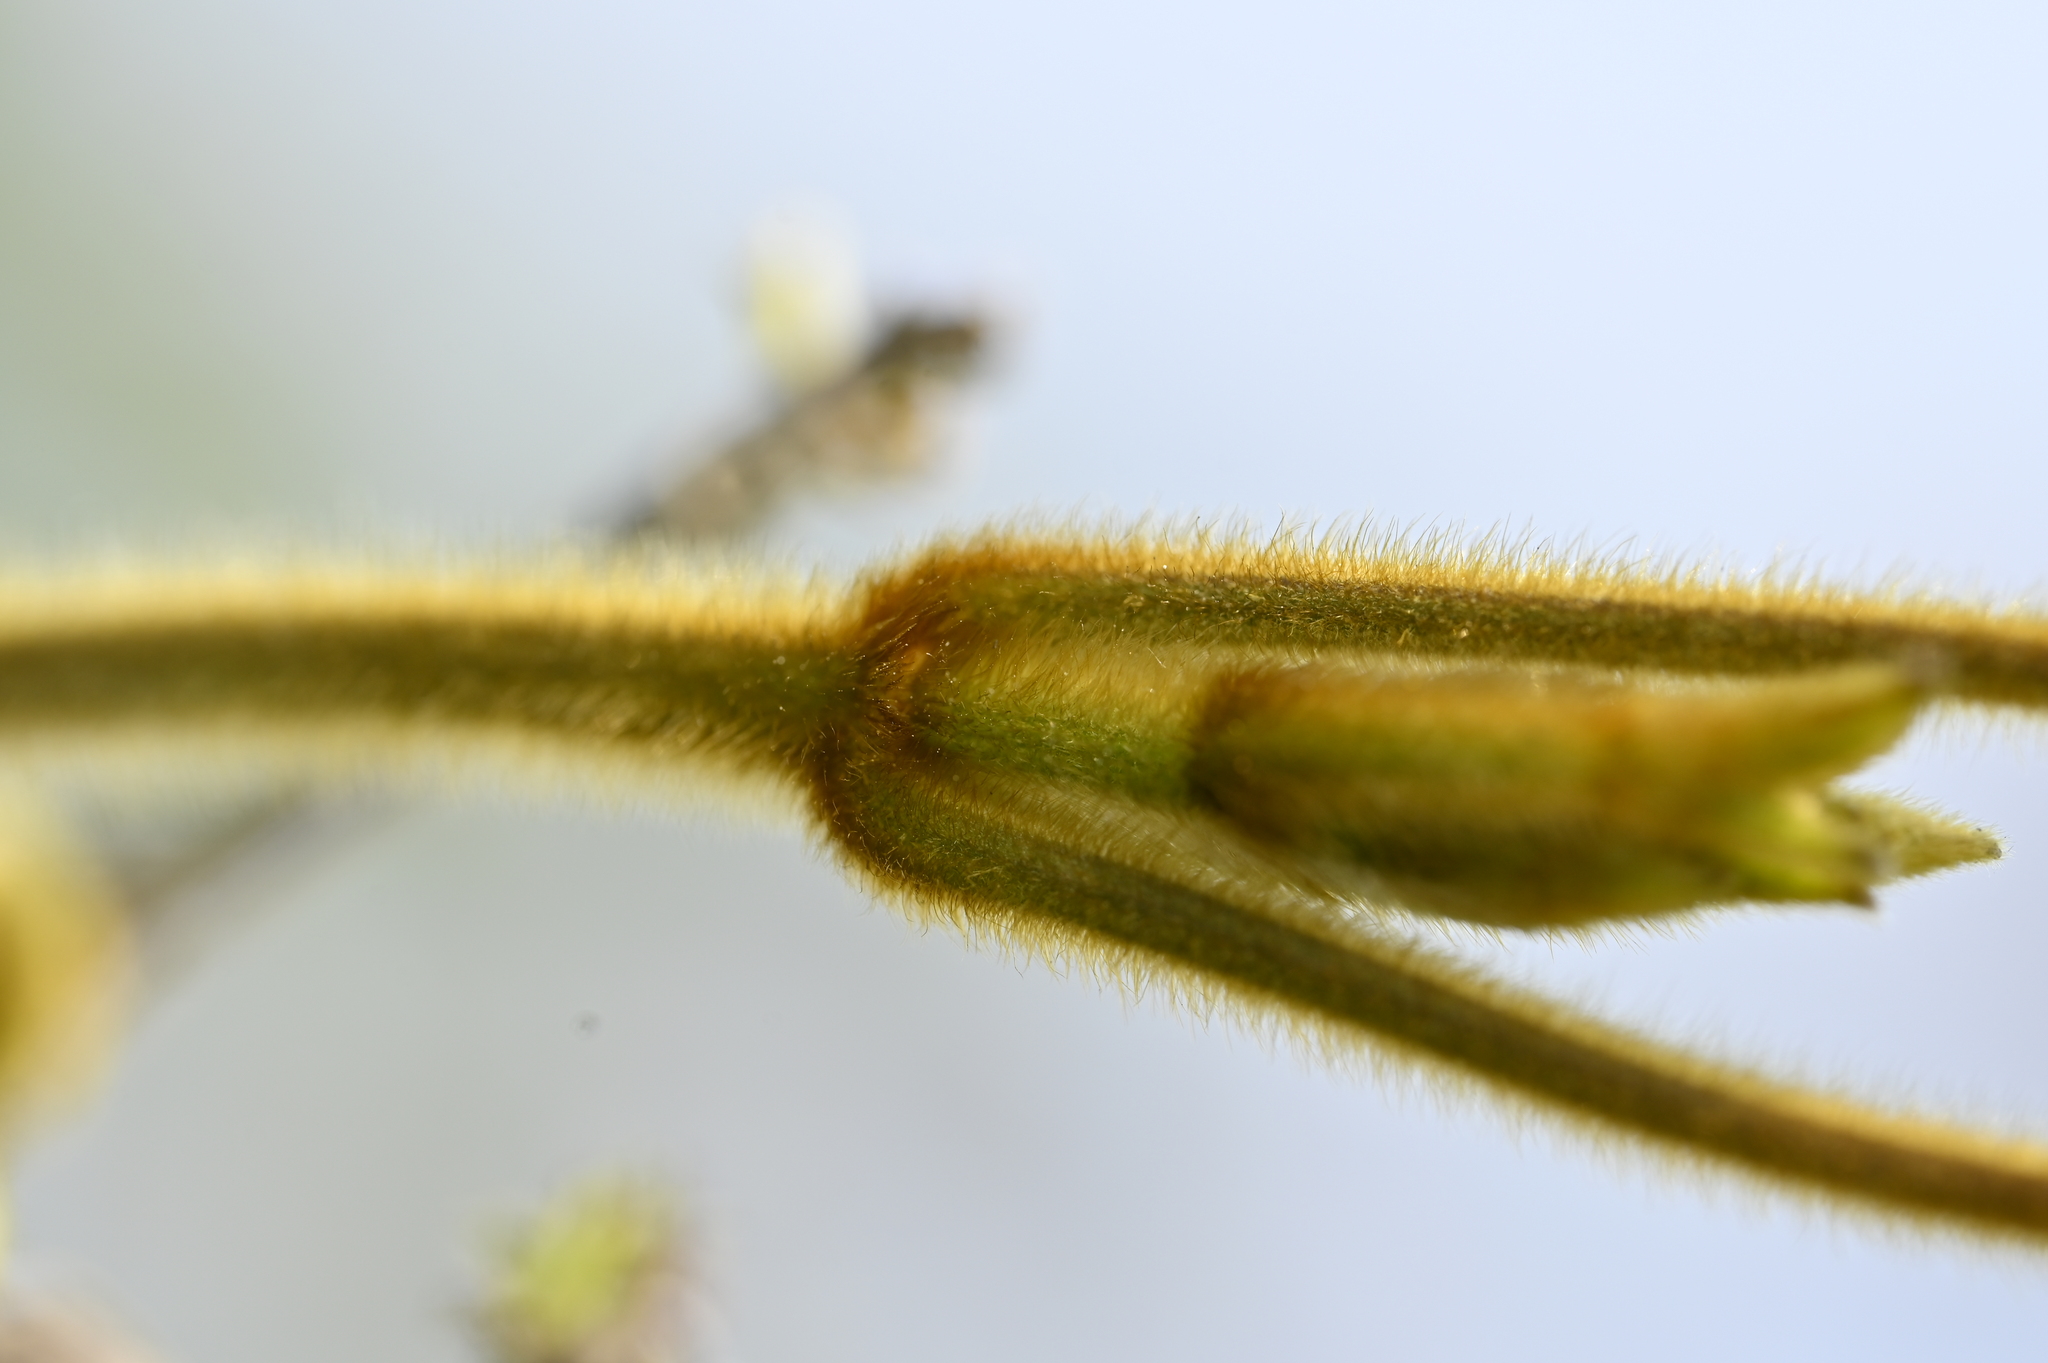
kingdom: Plantae
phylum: Tracheophyta
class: Magnoliopsida
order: Ranunculales
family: Ranunculaceae
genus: Clematis
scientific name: Clematis leschenaultiana
